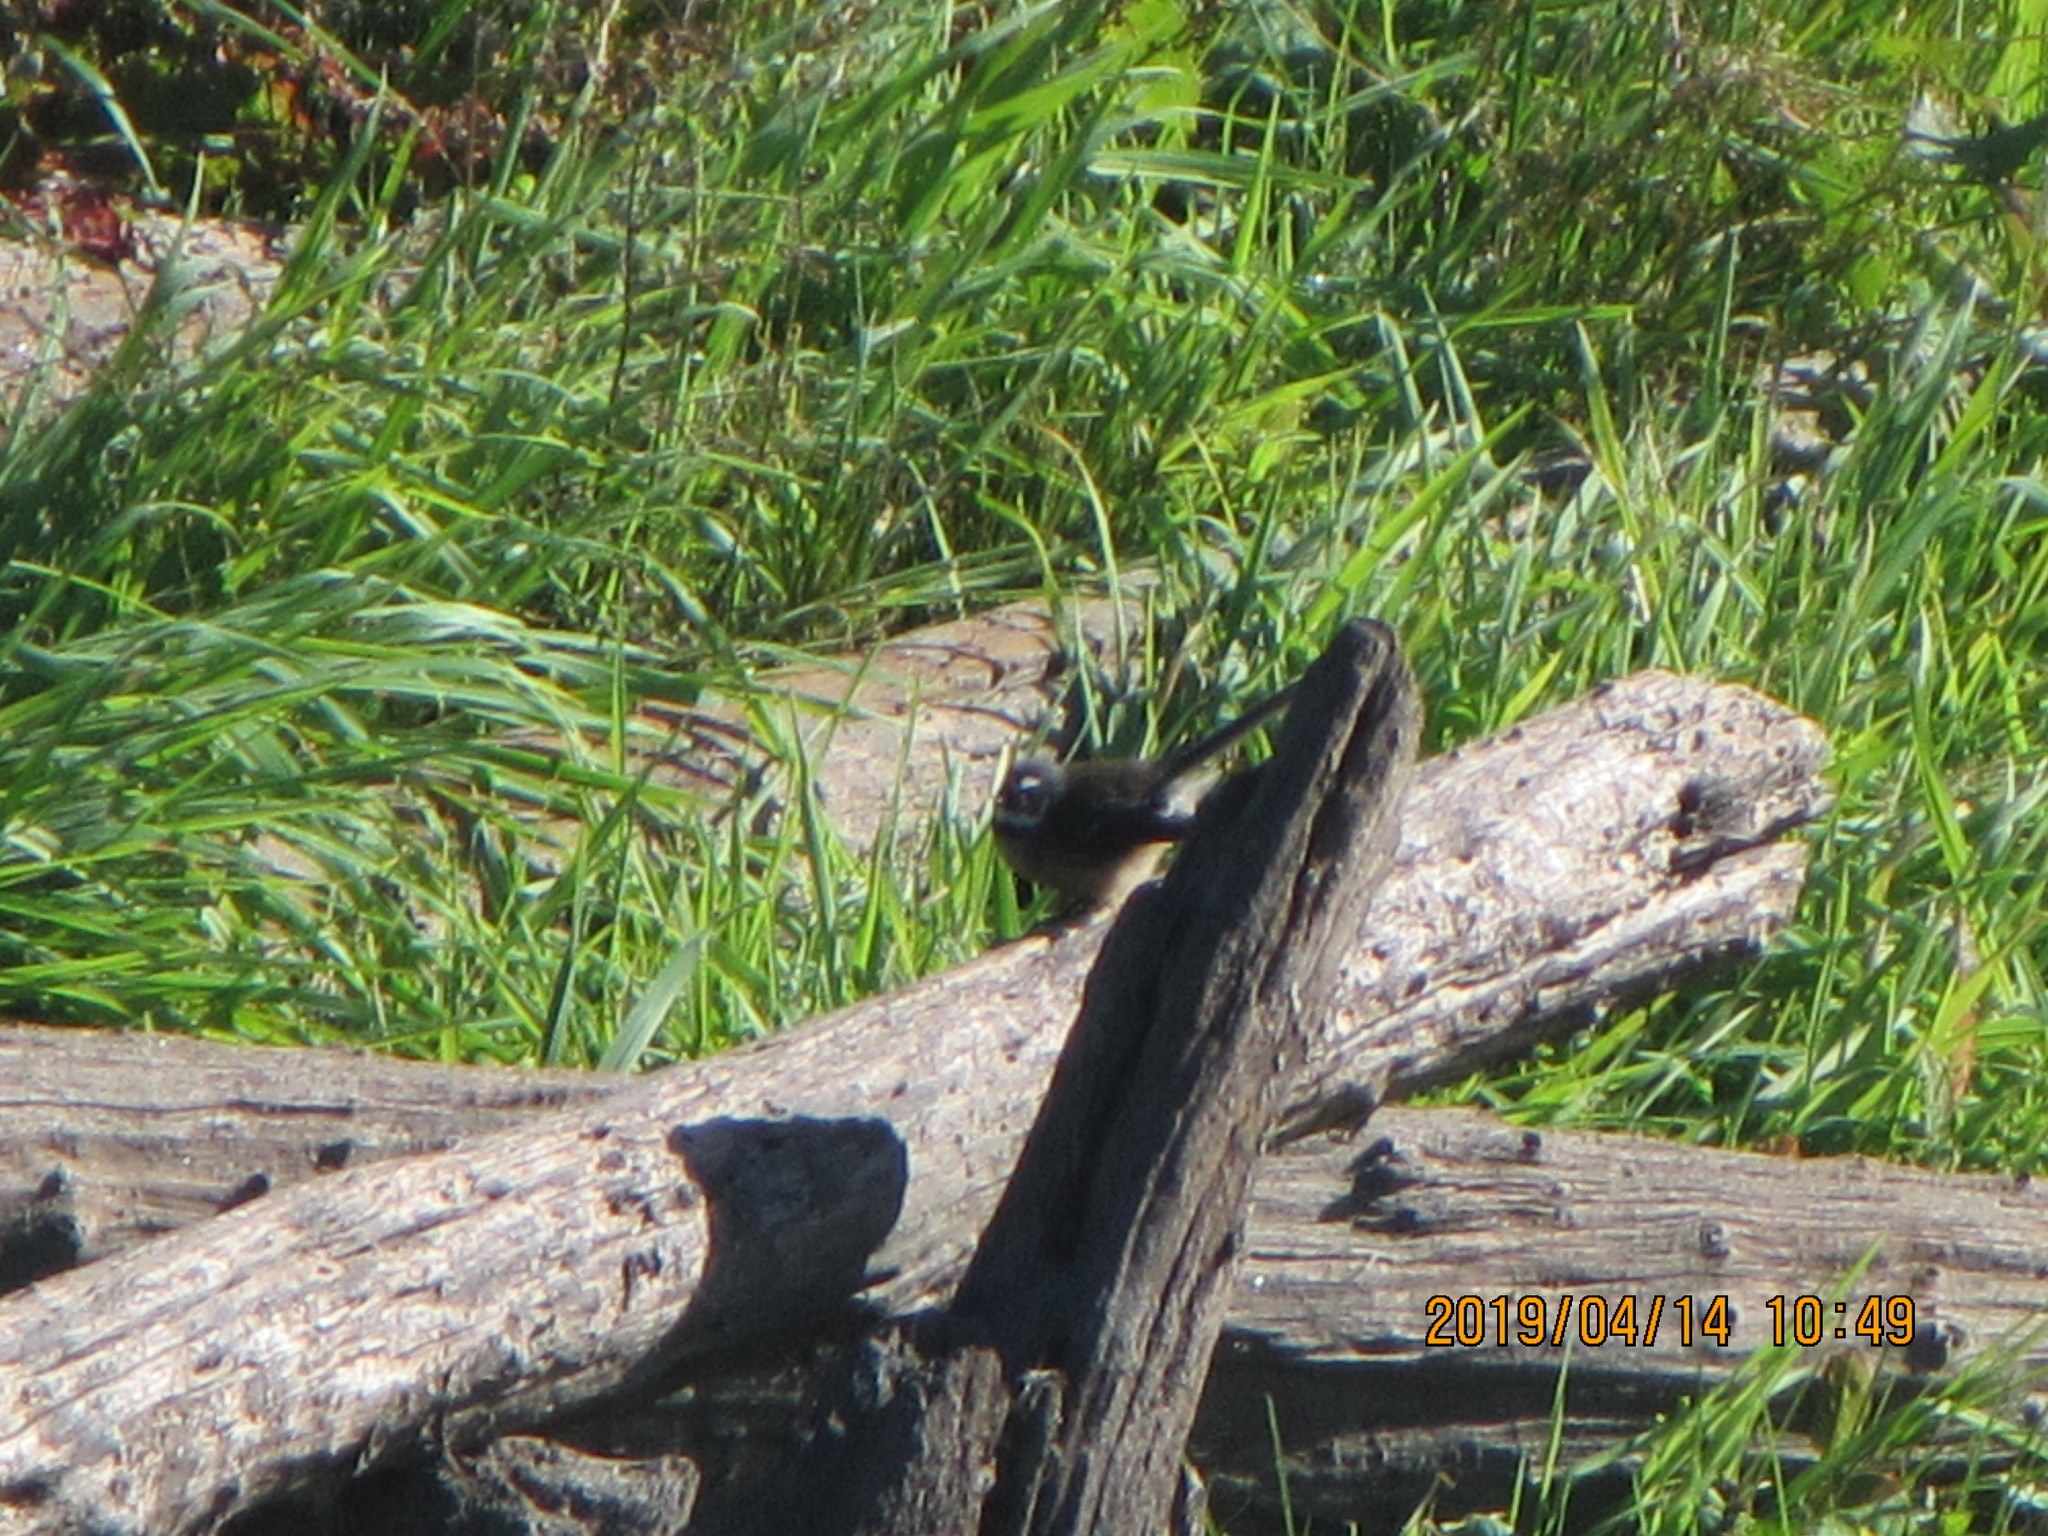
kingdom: Animalia
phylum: Chordata
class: Aves
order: Passeriformes
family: Rhipiduridae
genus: Rhipidura
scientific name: Rhipidura fuliginosa
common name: New zealand fantail
